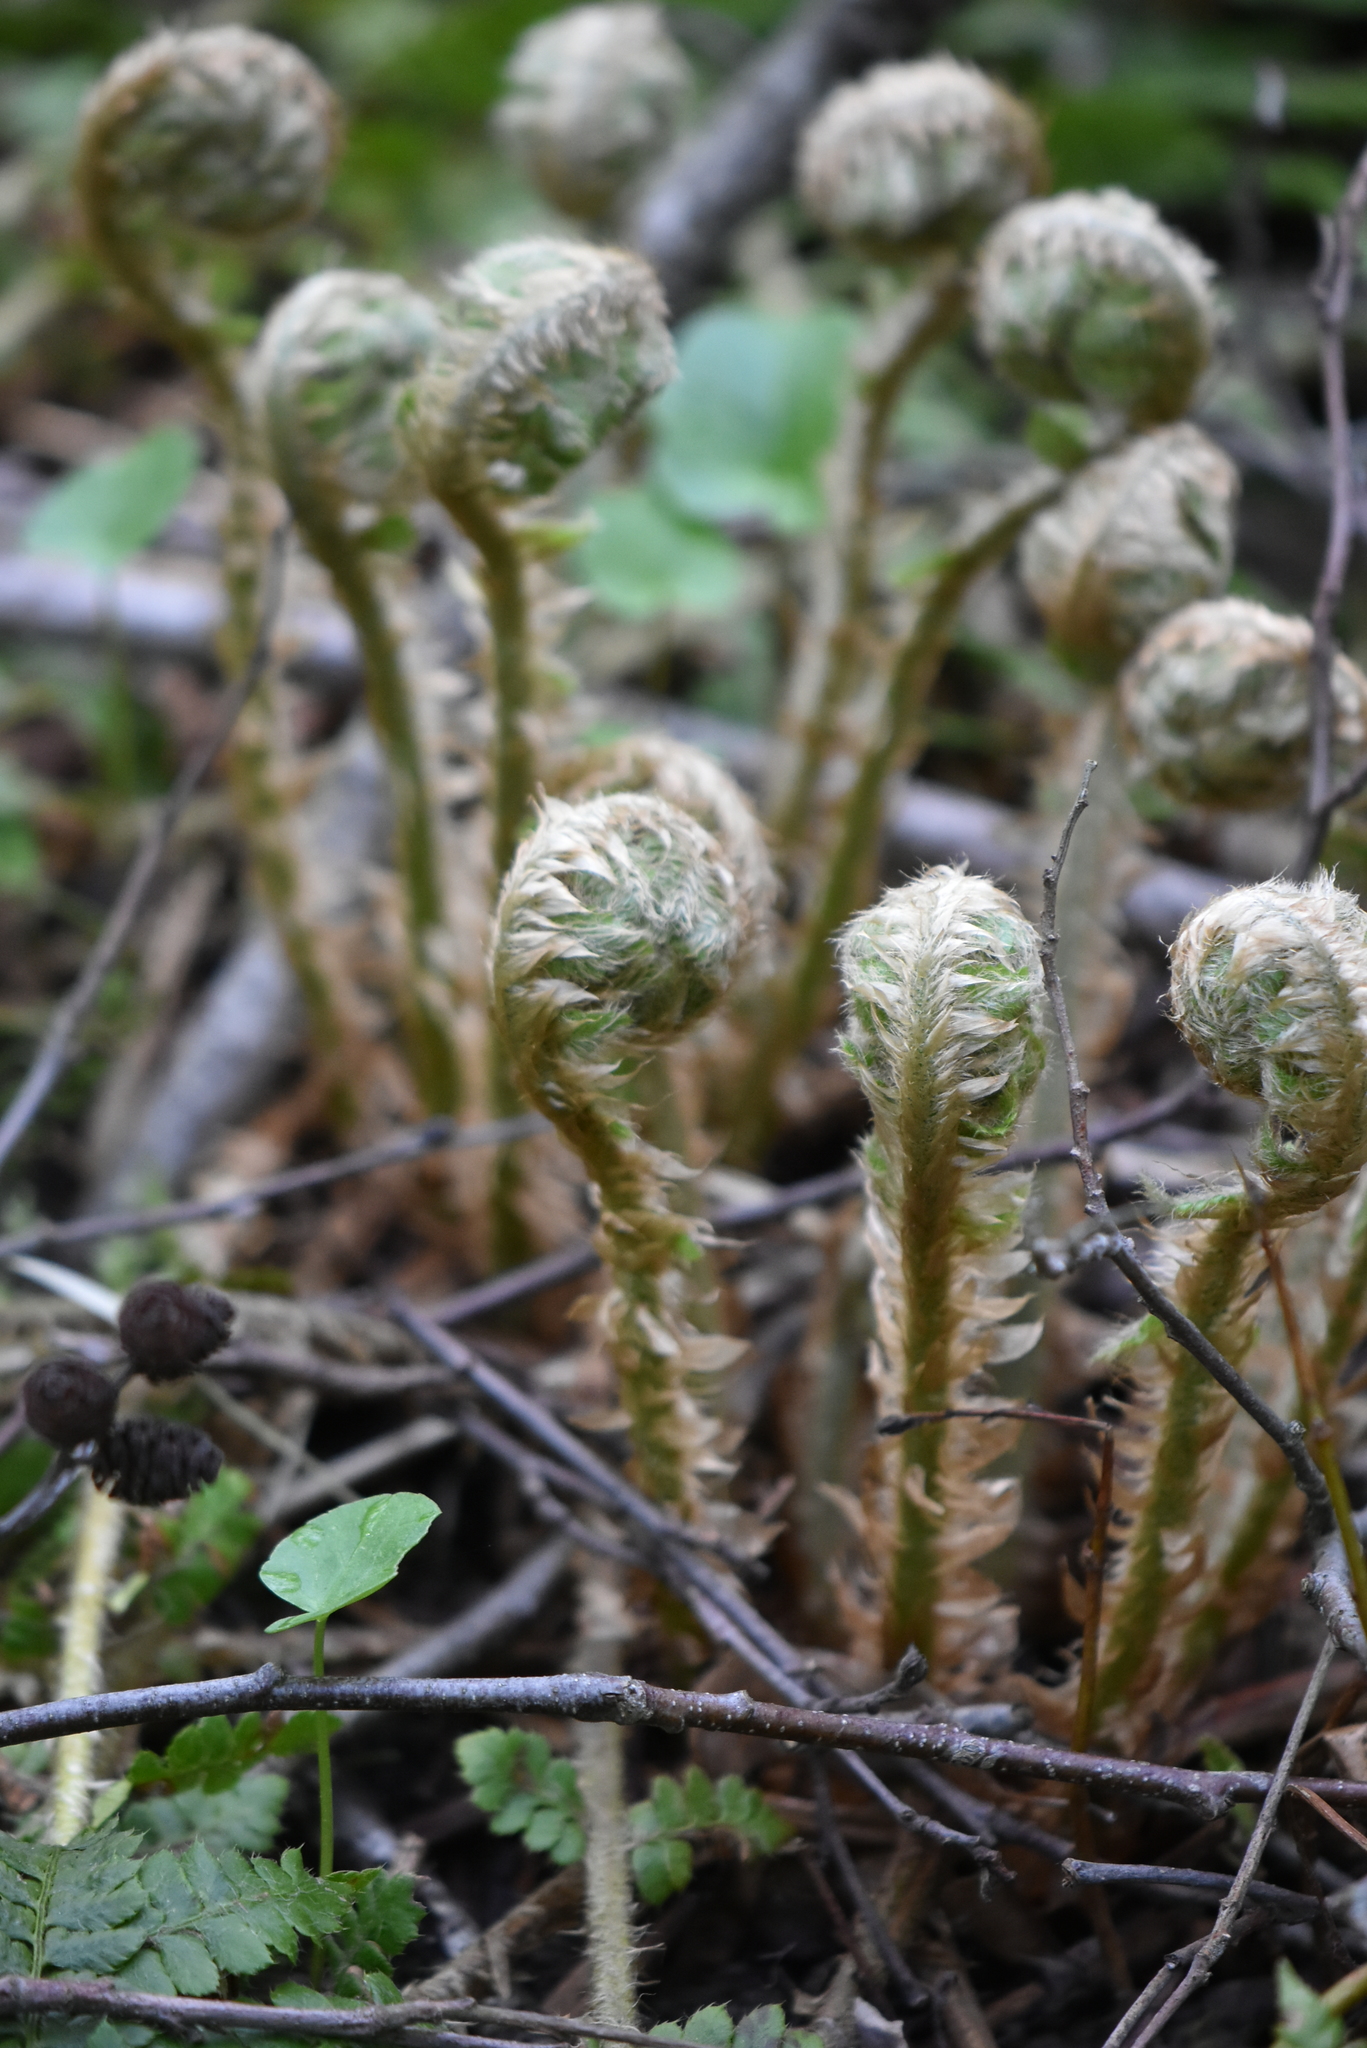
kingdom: Plantae
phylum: Tracheophyta
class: Polypodiopsida
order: Polypodiales
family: Dryopteridaceae
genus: Polystichum
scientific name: Polystichum braunii
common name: Braun's holly fern
